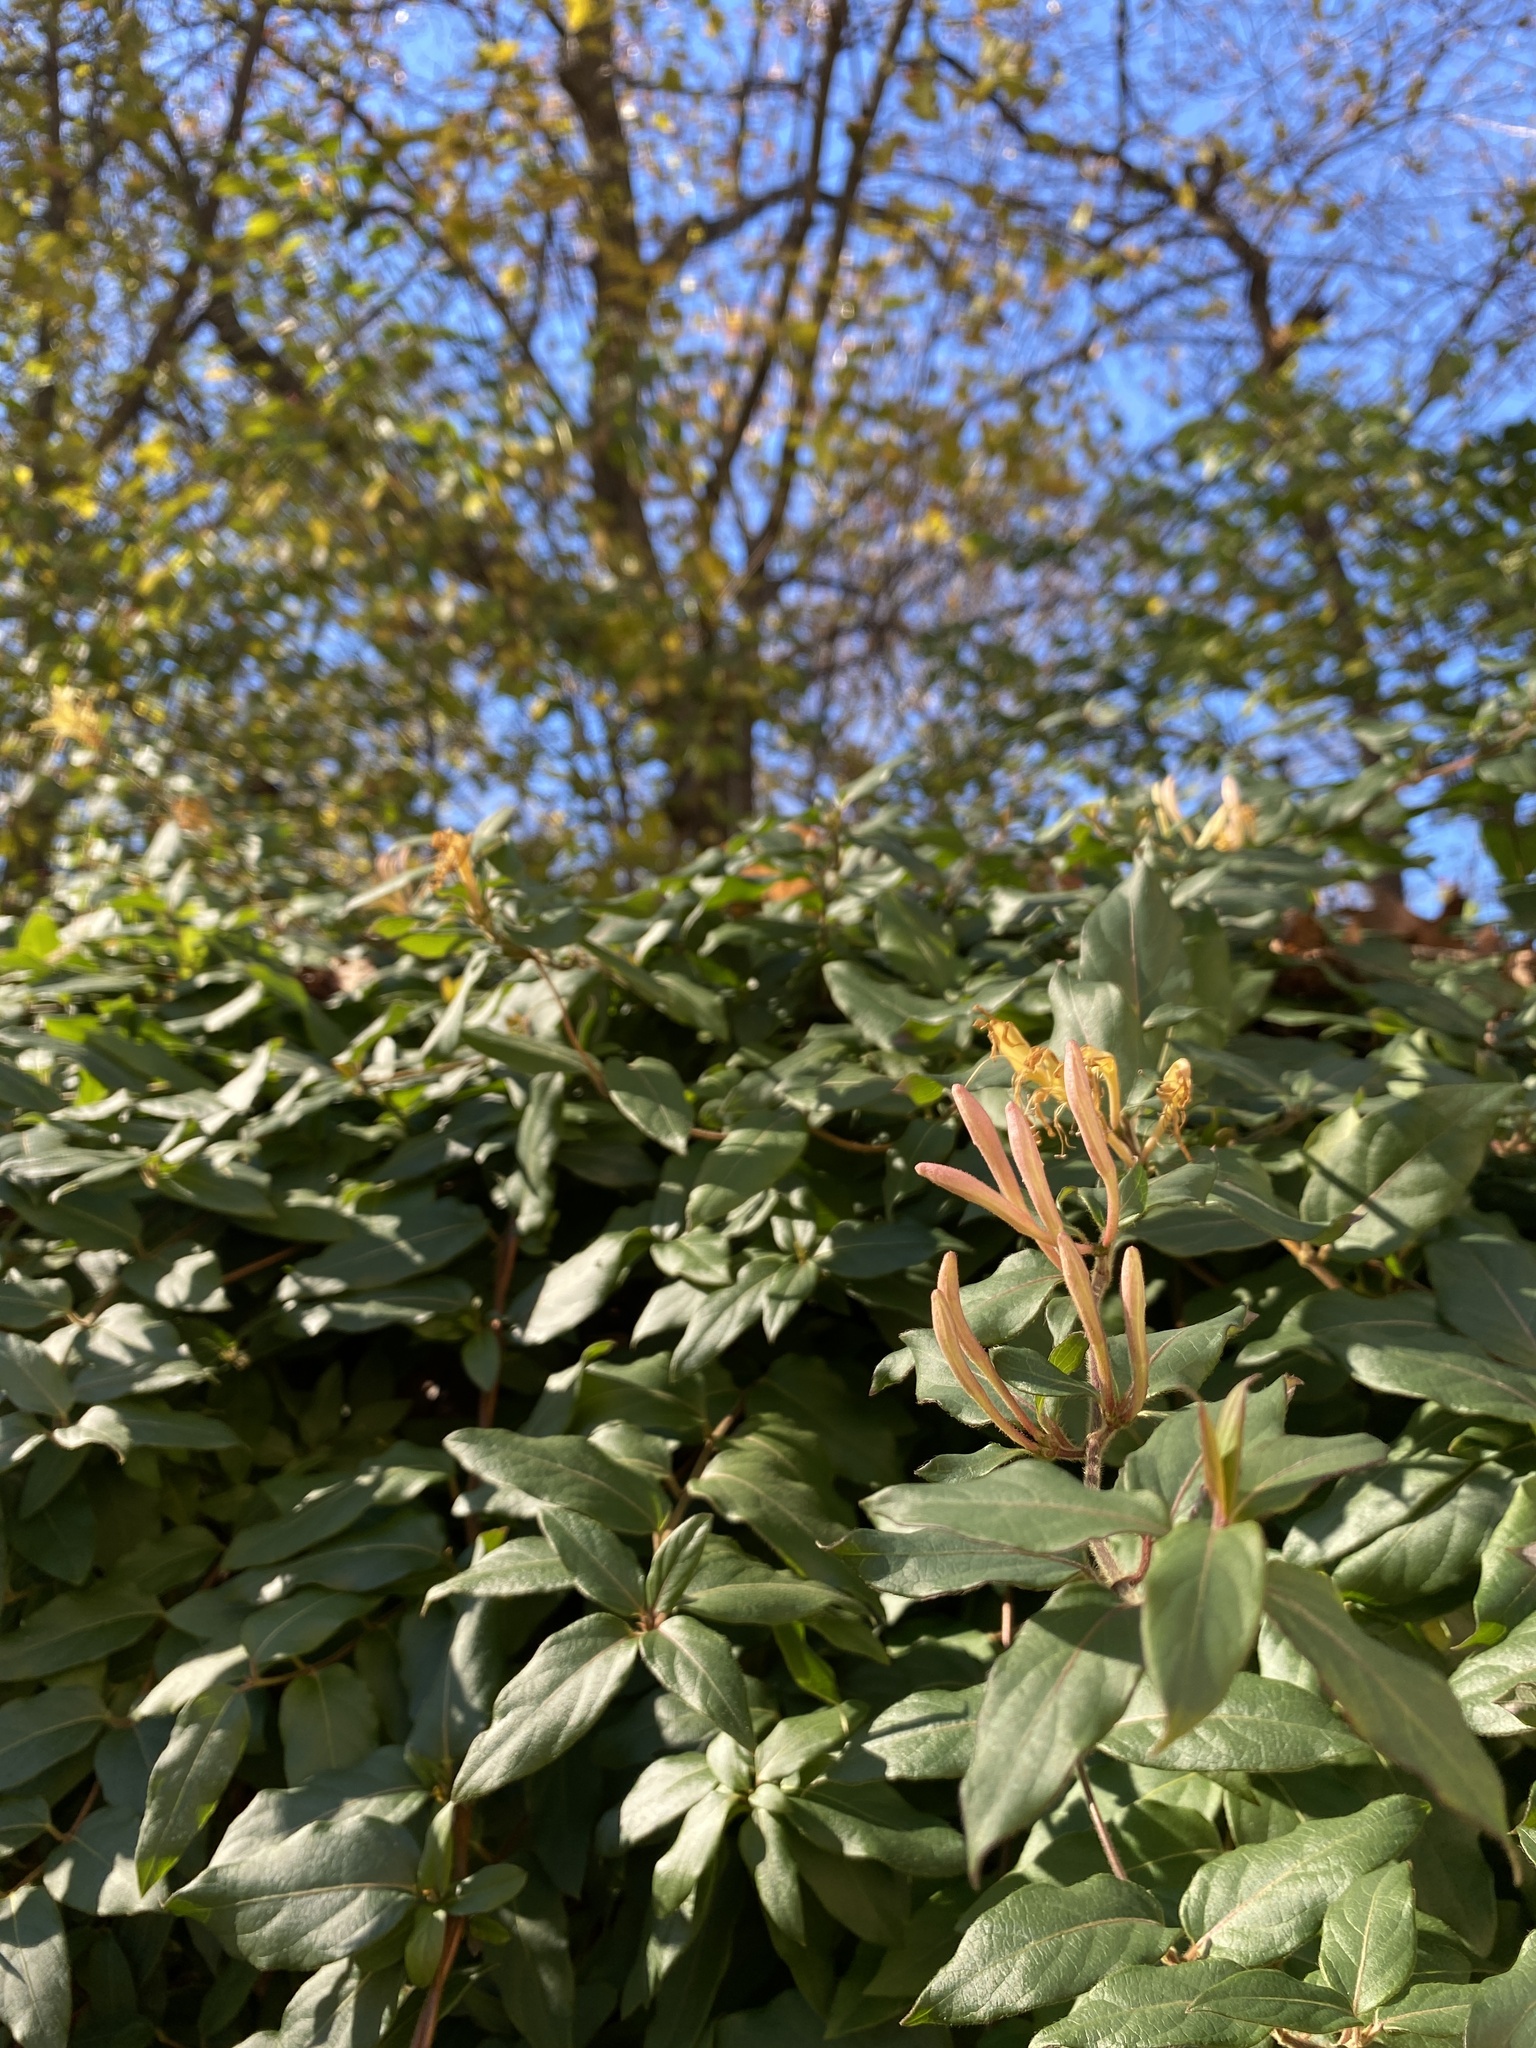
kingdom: Plantae
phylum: Tracheophyta
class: Magnoliopsida
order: Dipsacales
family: Caprifoliaceae
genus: Lonicera
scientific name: Lonicera japonica
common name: Japanese honeysuckle
